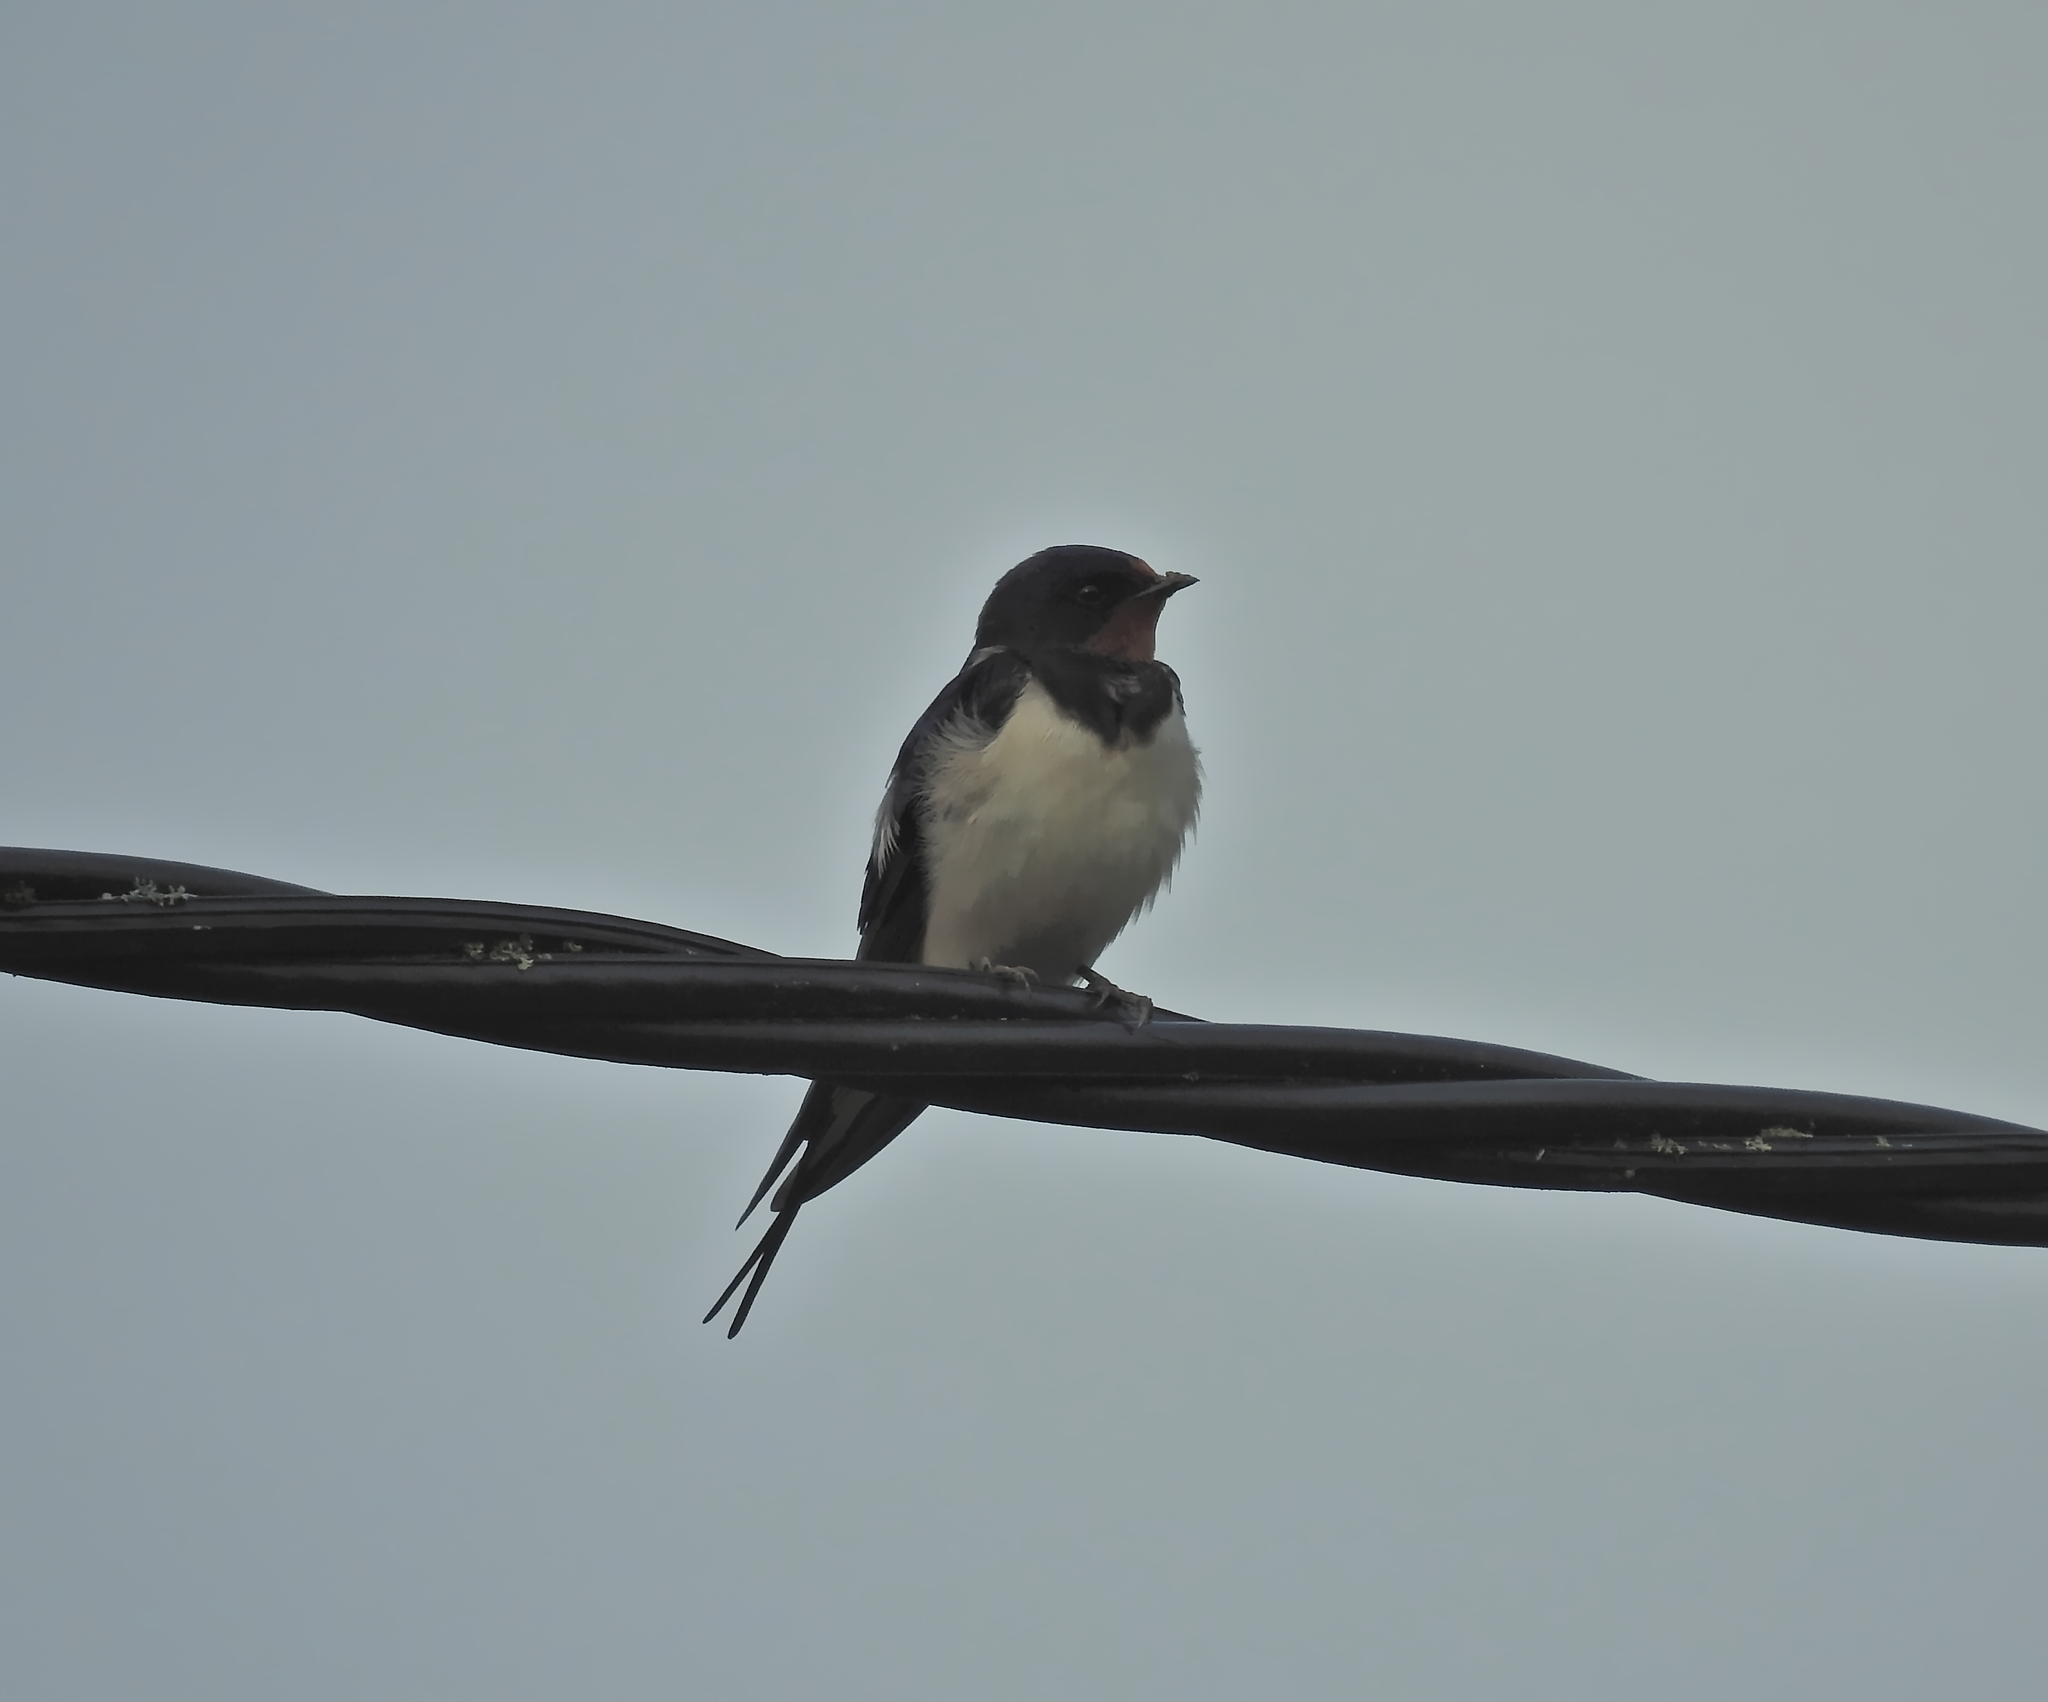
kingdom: Animalia
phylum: Chordata
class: Aves
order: Passeriformes
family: Hirundinidae
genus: Hirundo
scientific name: Hirundo rustica
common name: Barn swallow
